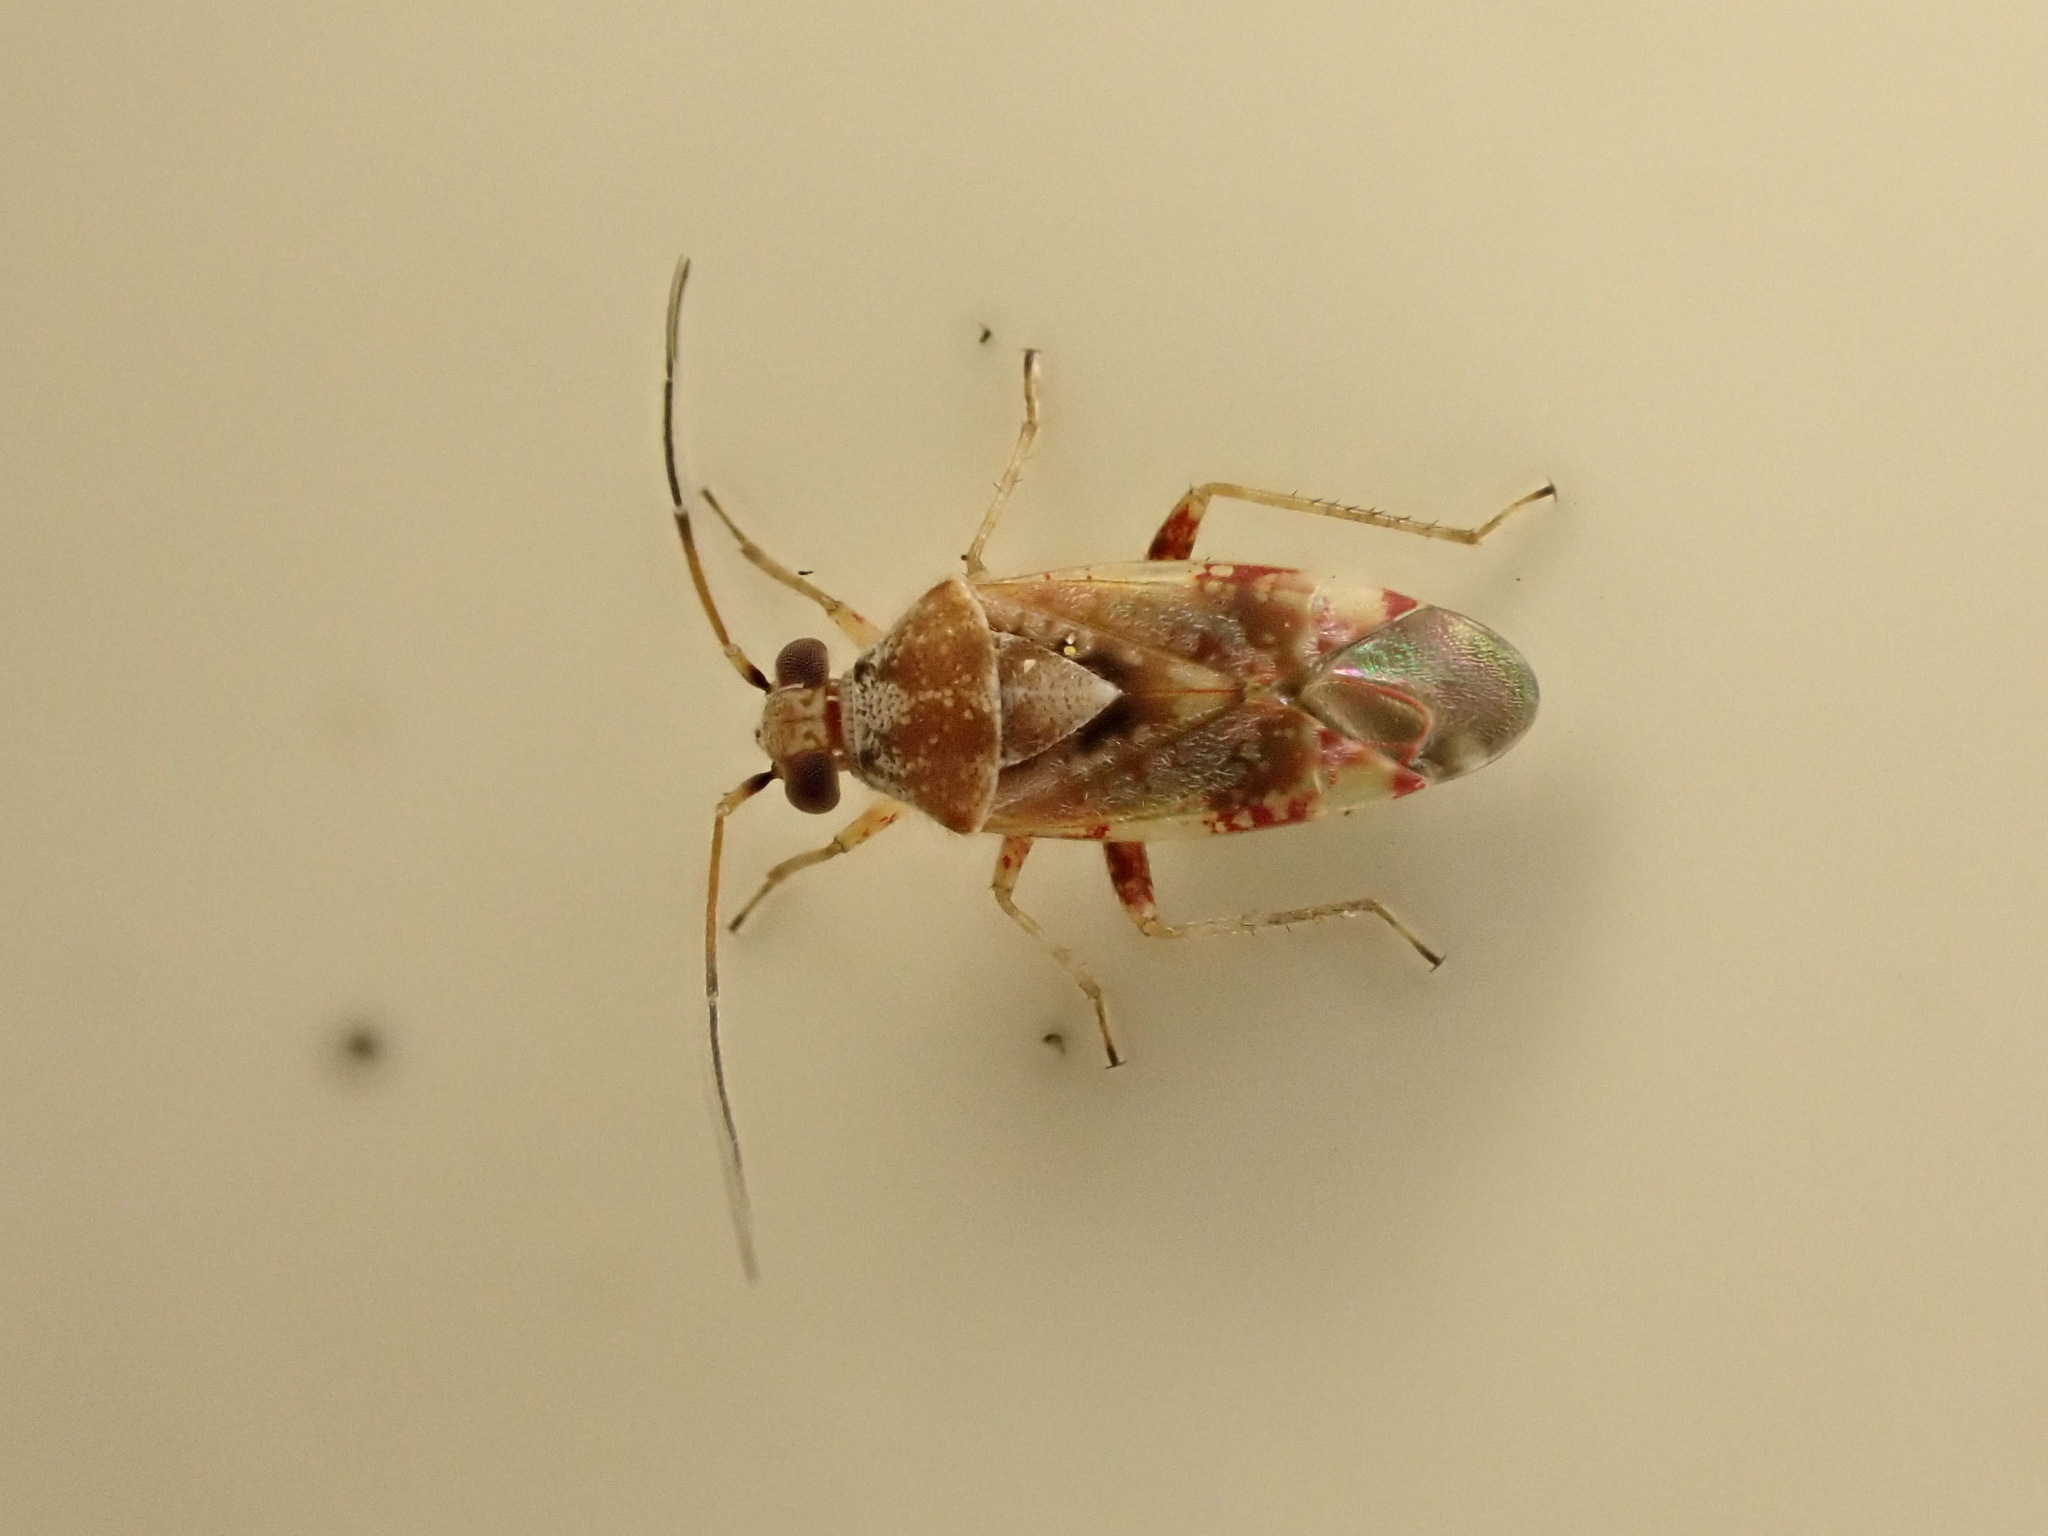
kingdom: Animalia
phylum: Arthropoda
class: Insecta
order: Hemiptera
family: Miridae
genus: Tinginotum
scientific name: Tinginotum minutum
